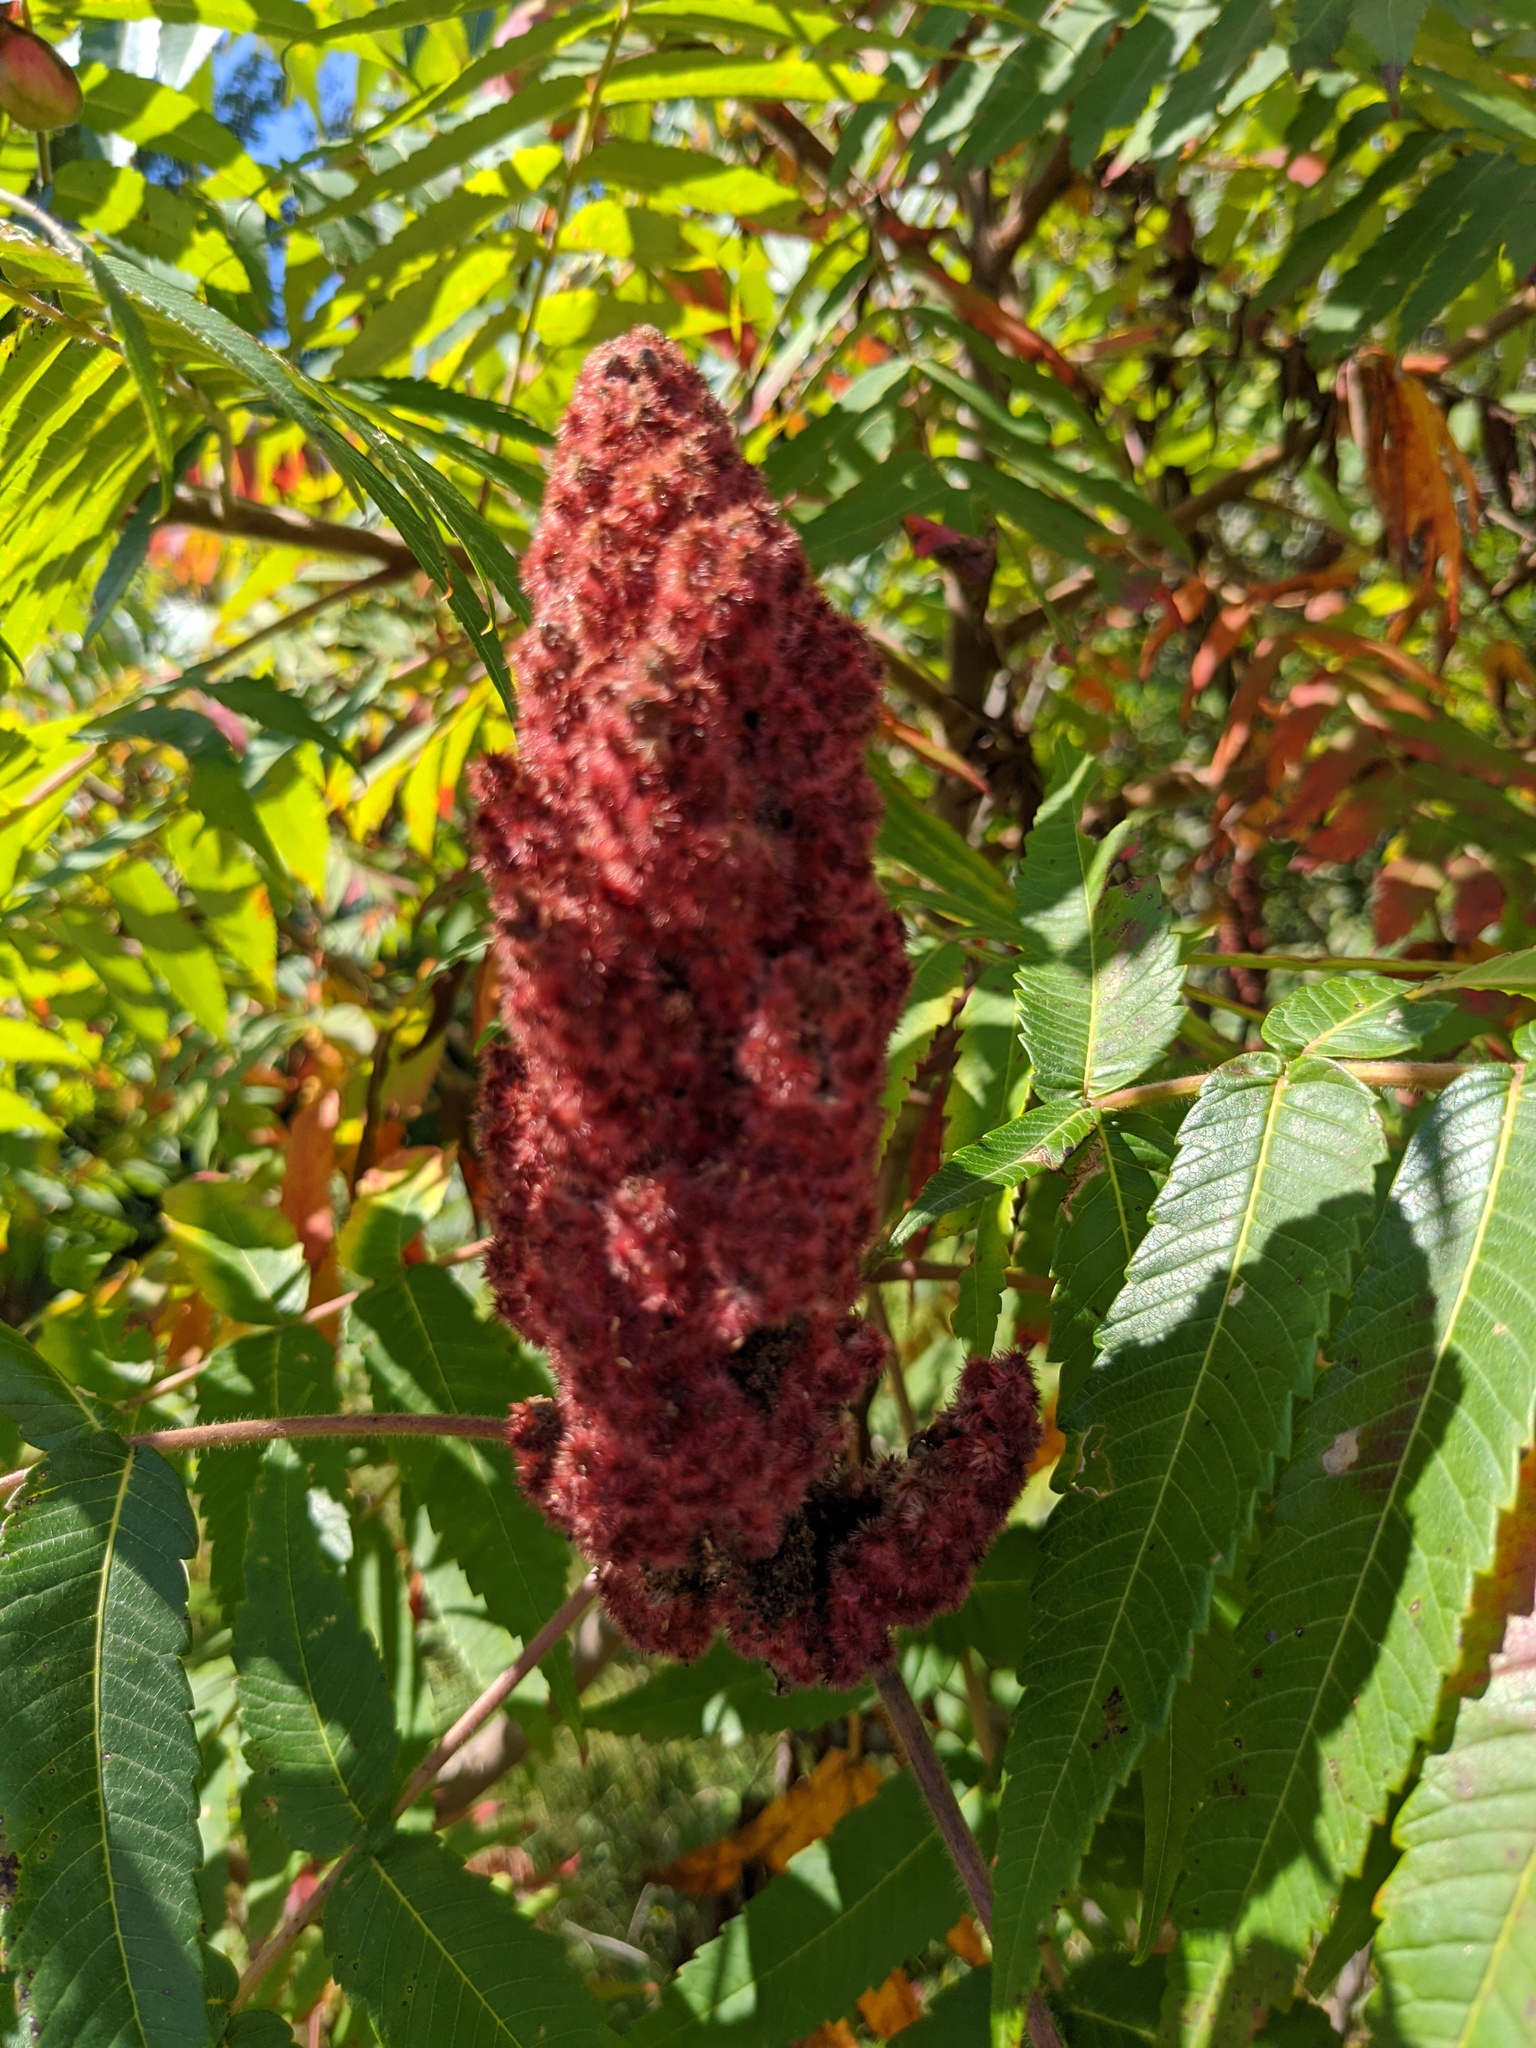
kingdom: Plantae
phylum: Tracheophyta
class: Magnoliopsida
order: Sapindales
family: Anacardiaceae
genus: Rhus
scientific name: Rhus typhina
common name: Staghorn sumac
